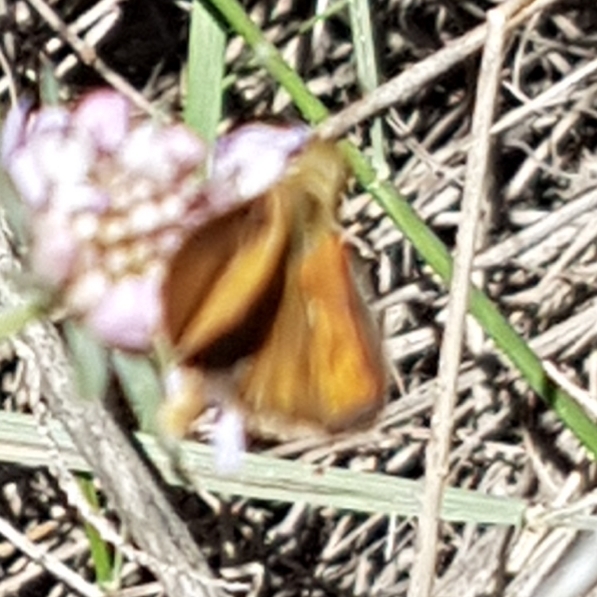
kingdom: Animalia
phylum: Arthropoda
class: Insecta
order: Lepidoptera
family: Hesperiidae
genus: Thymelicus
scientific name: Thymelicus acteon
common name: Lulworth skipper
